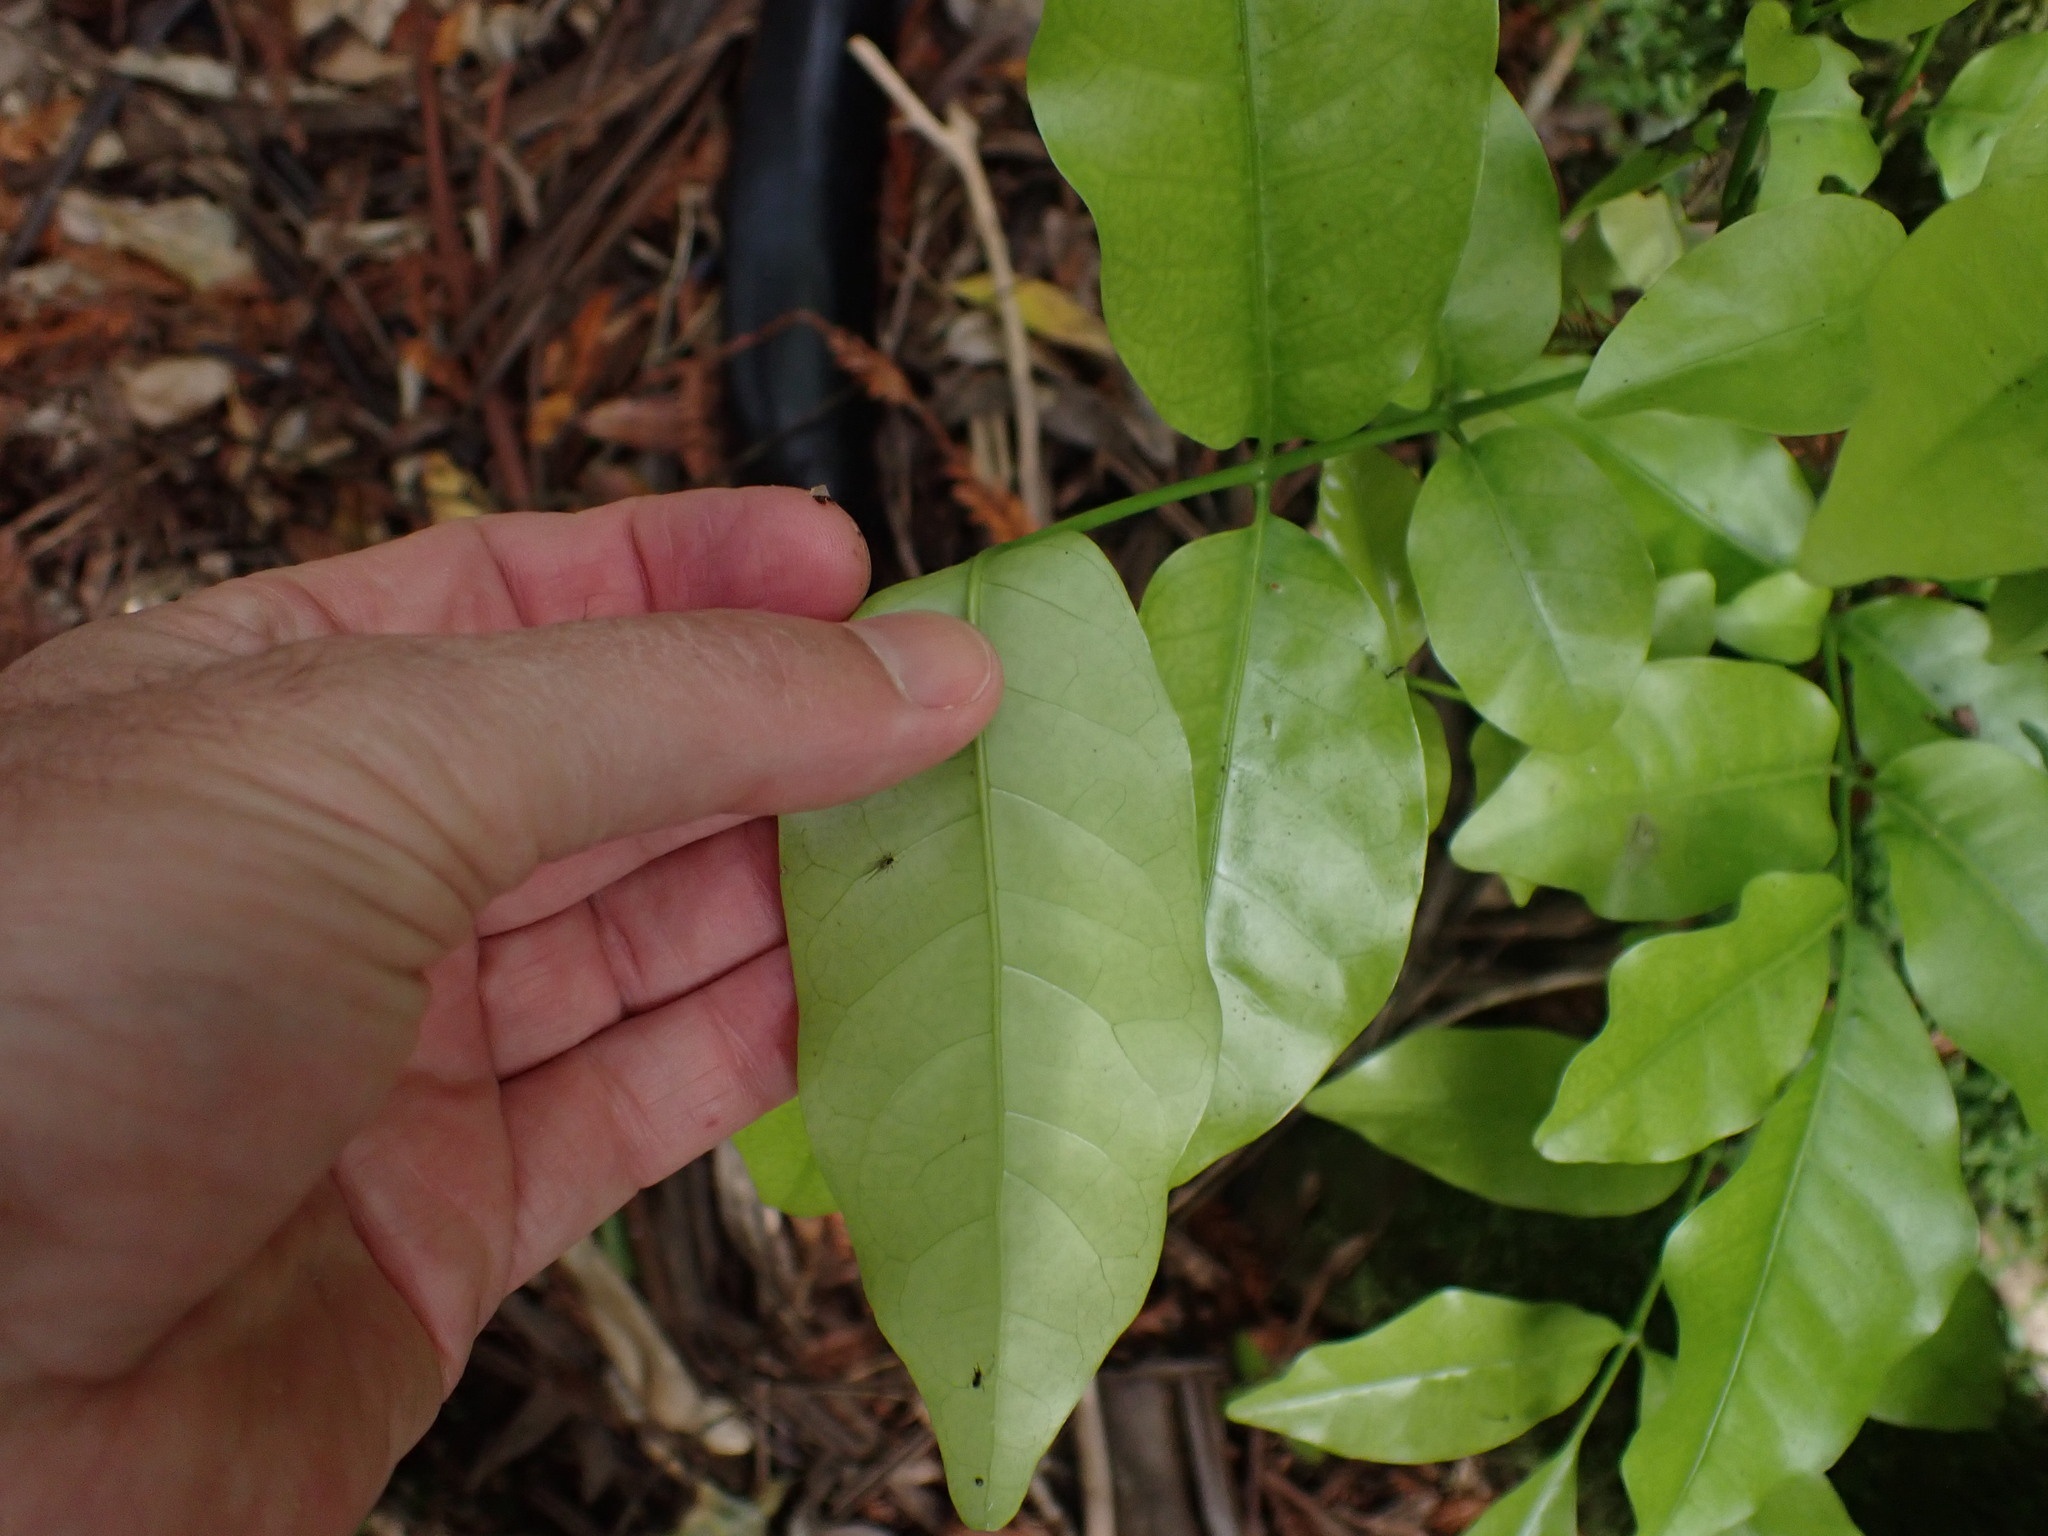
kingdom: Plantae
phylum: Tracheophyta
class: Magnoliopsida
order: Sapindales
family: Meliaceae
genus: Didymocheton
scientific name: Didymocheton spectabilis
